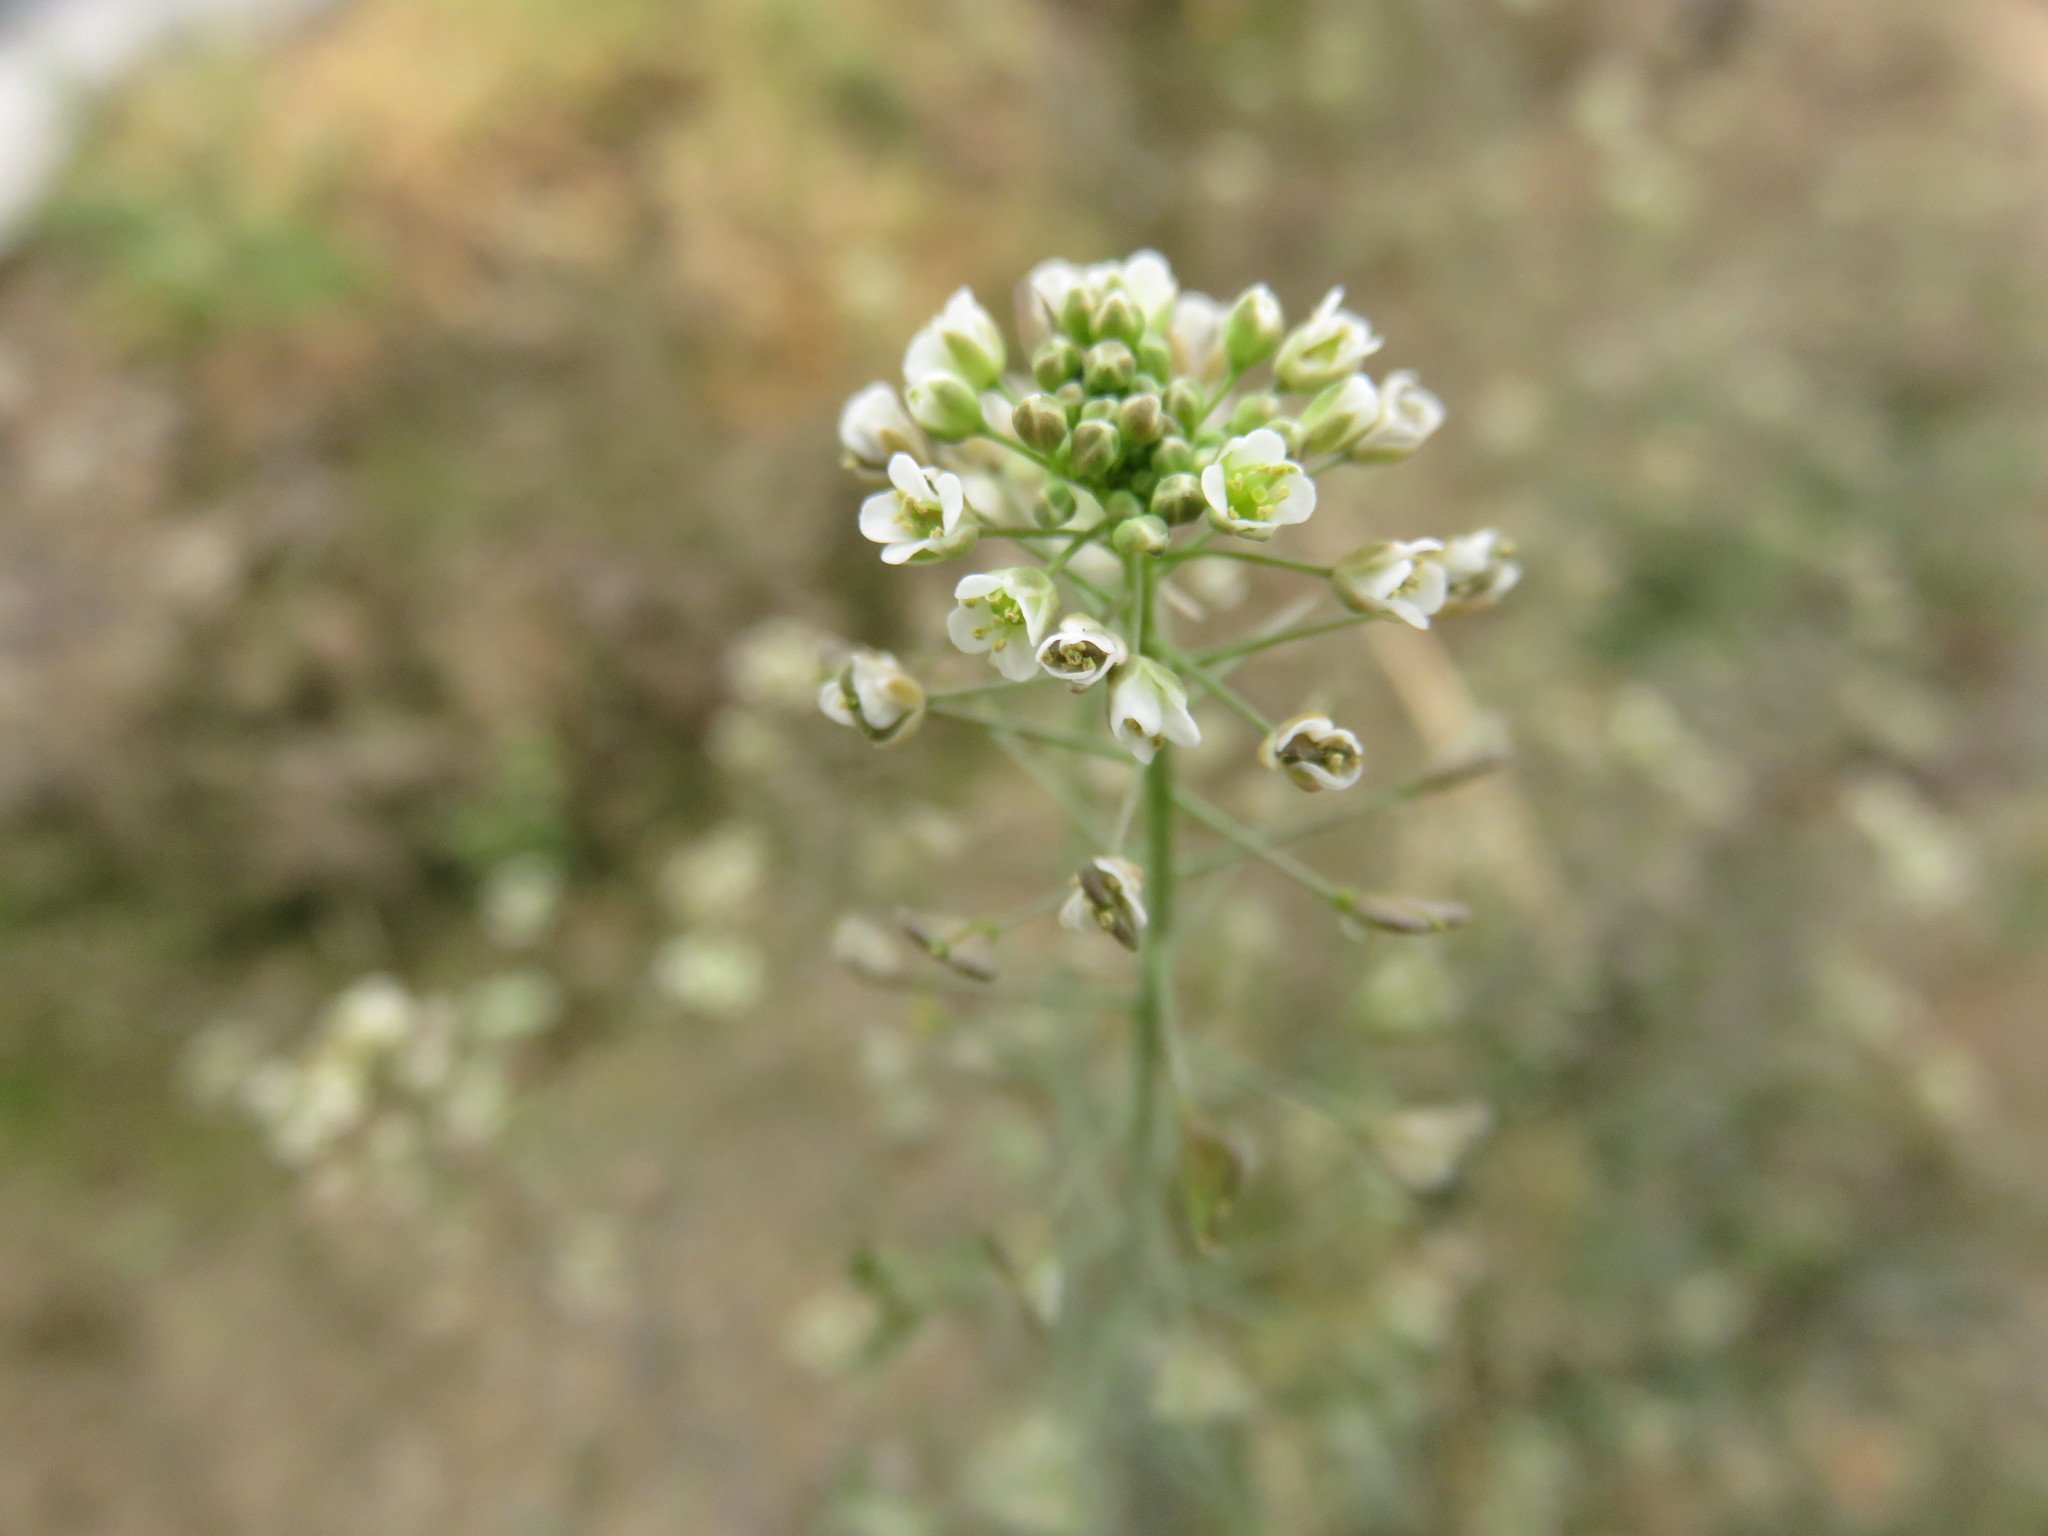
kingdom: Plantae
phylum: Tracheophyta
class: Magnoliopsida
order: Brassicales
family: Brassicaceae
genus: Capsella
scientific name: Capsella bursa-pastoris
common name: Shepherd's purse
